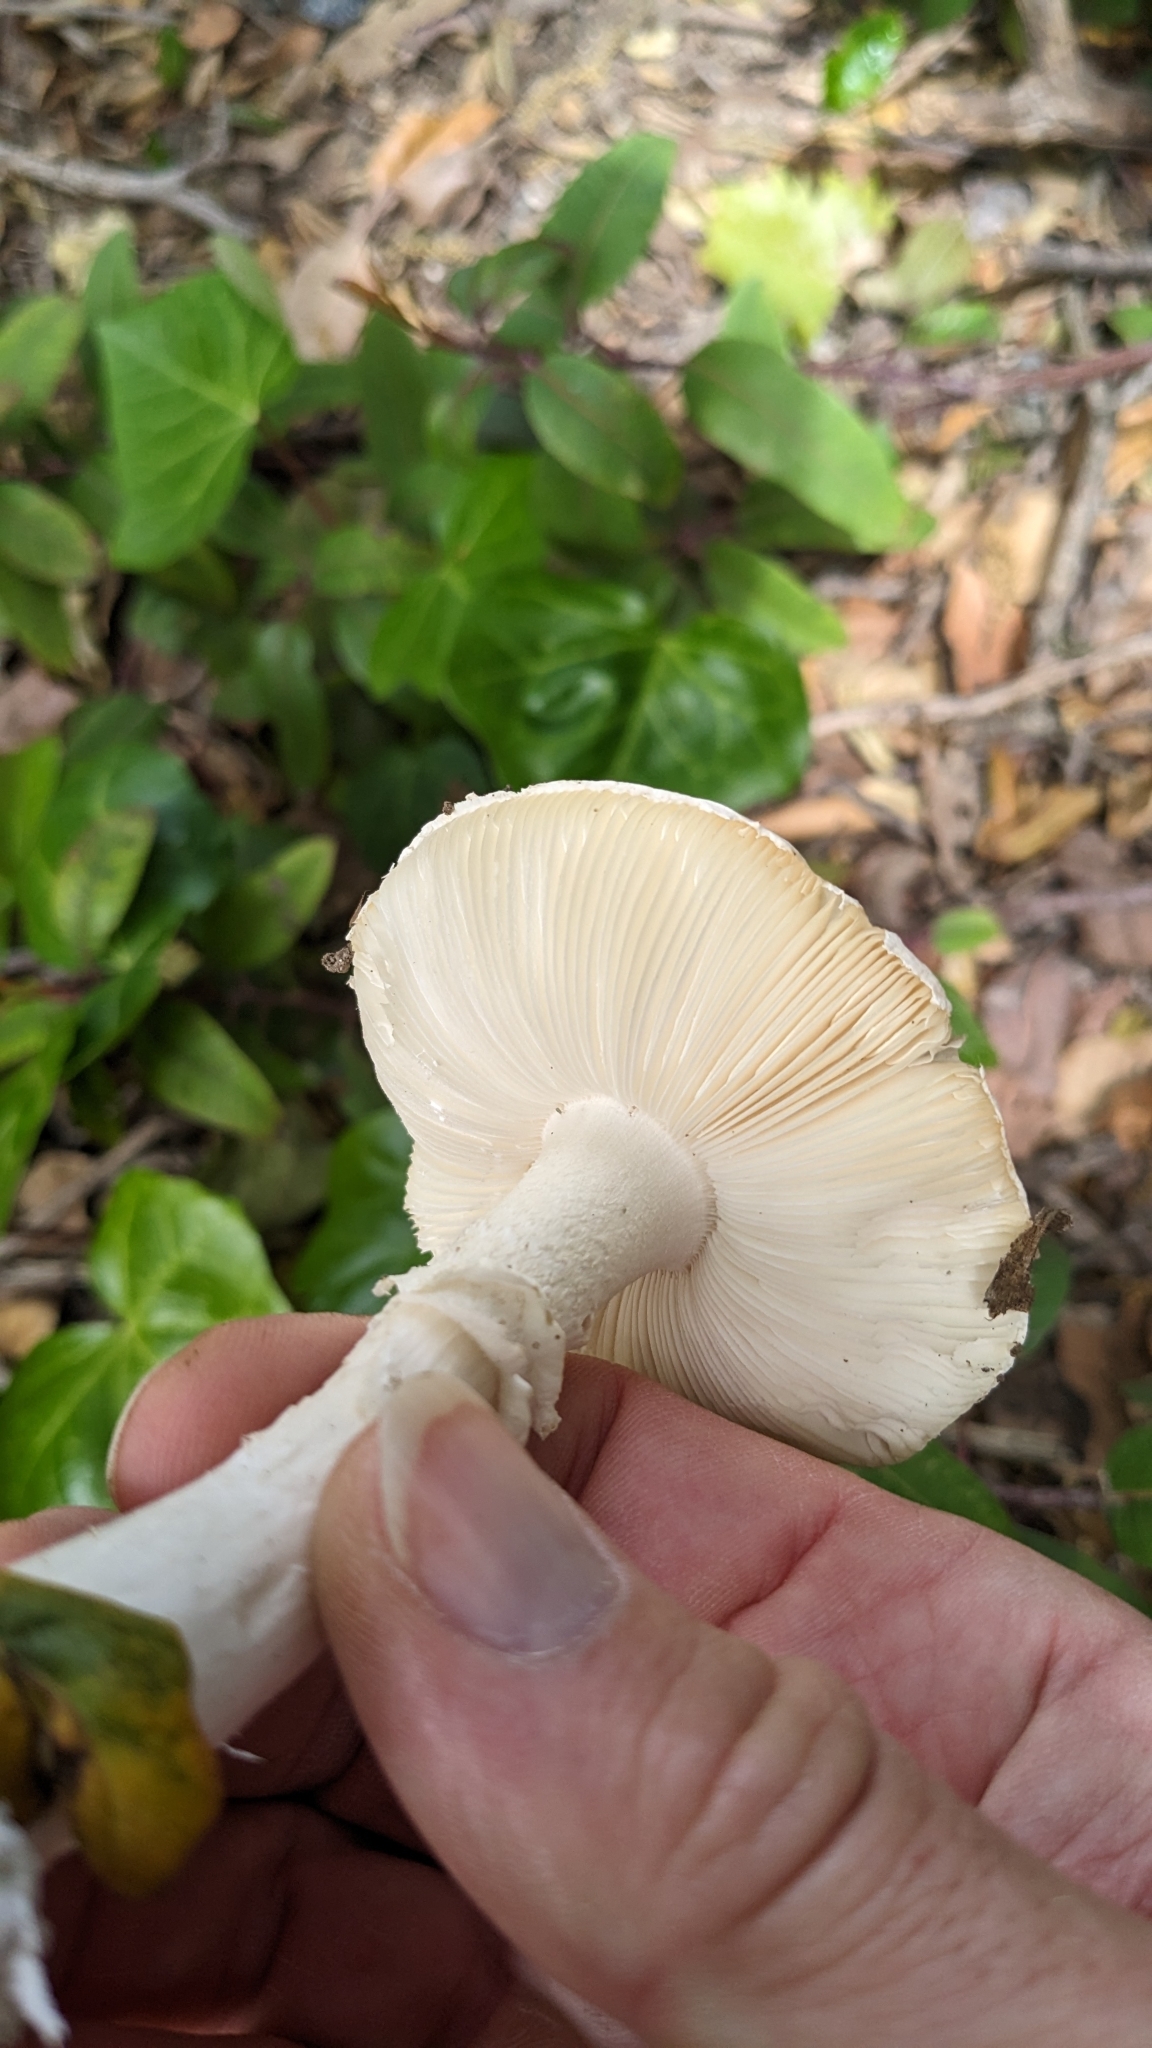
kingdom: Fungi
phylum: Basidiomycota
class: Agaricomycetes
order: Agaricales
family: Amanitaceae
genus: Amanita
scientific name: Amanita ocreata
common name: Western destroying angel
